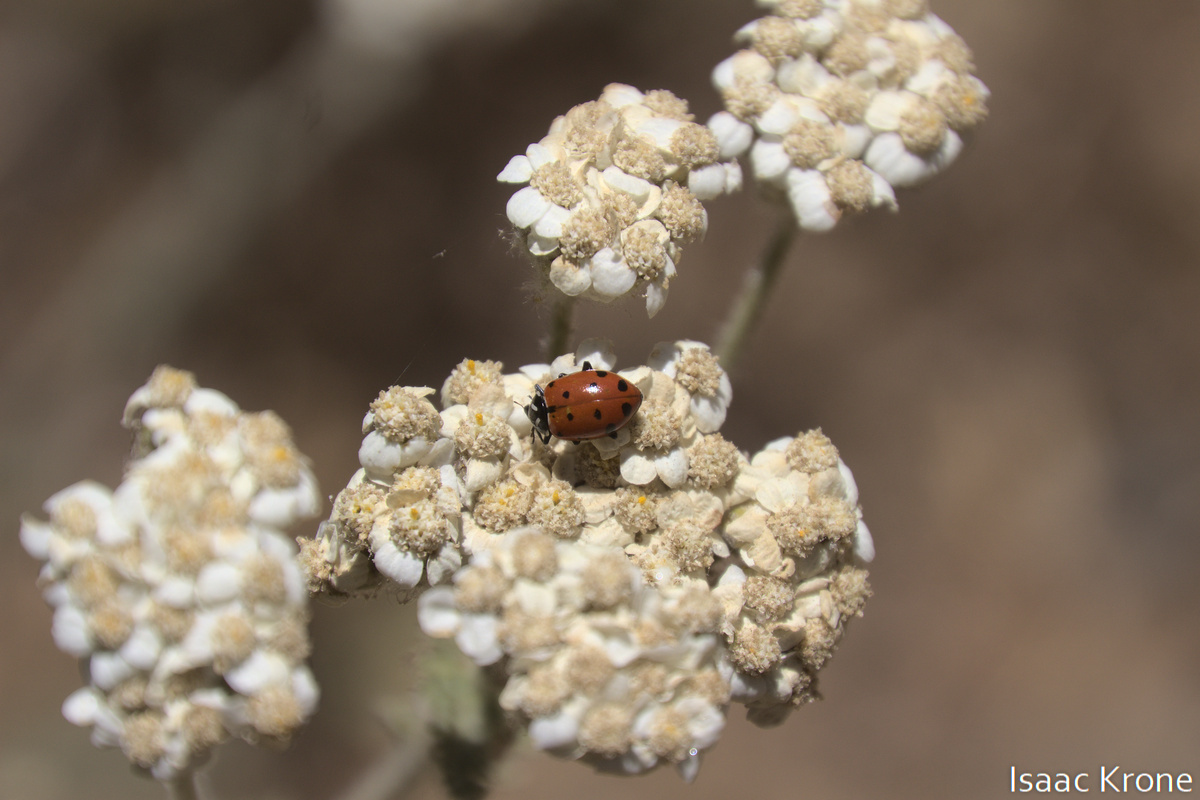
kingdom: Animalia
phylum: Arthropoda
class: Insecta
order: Coleoptera
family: Coccinellidae
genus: Hippodamia
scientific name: Hippodamia convergens
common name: Convergent lady beetle
